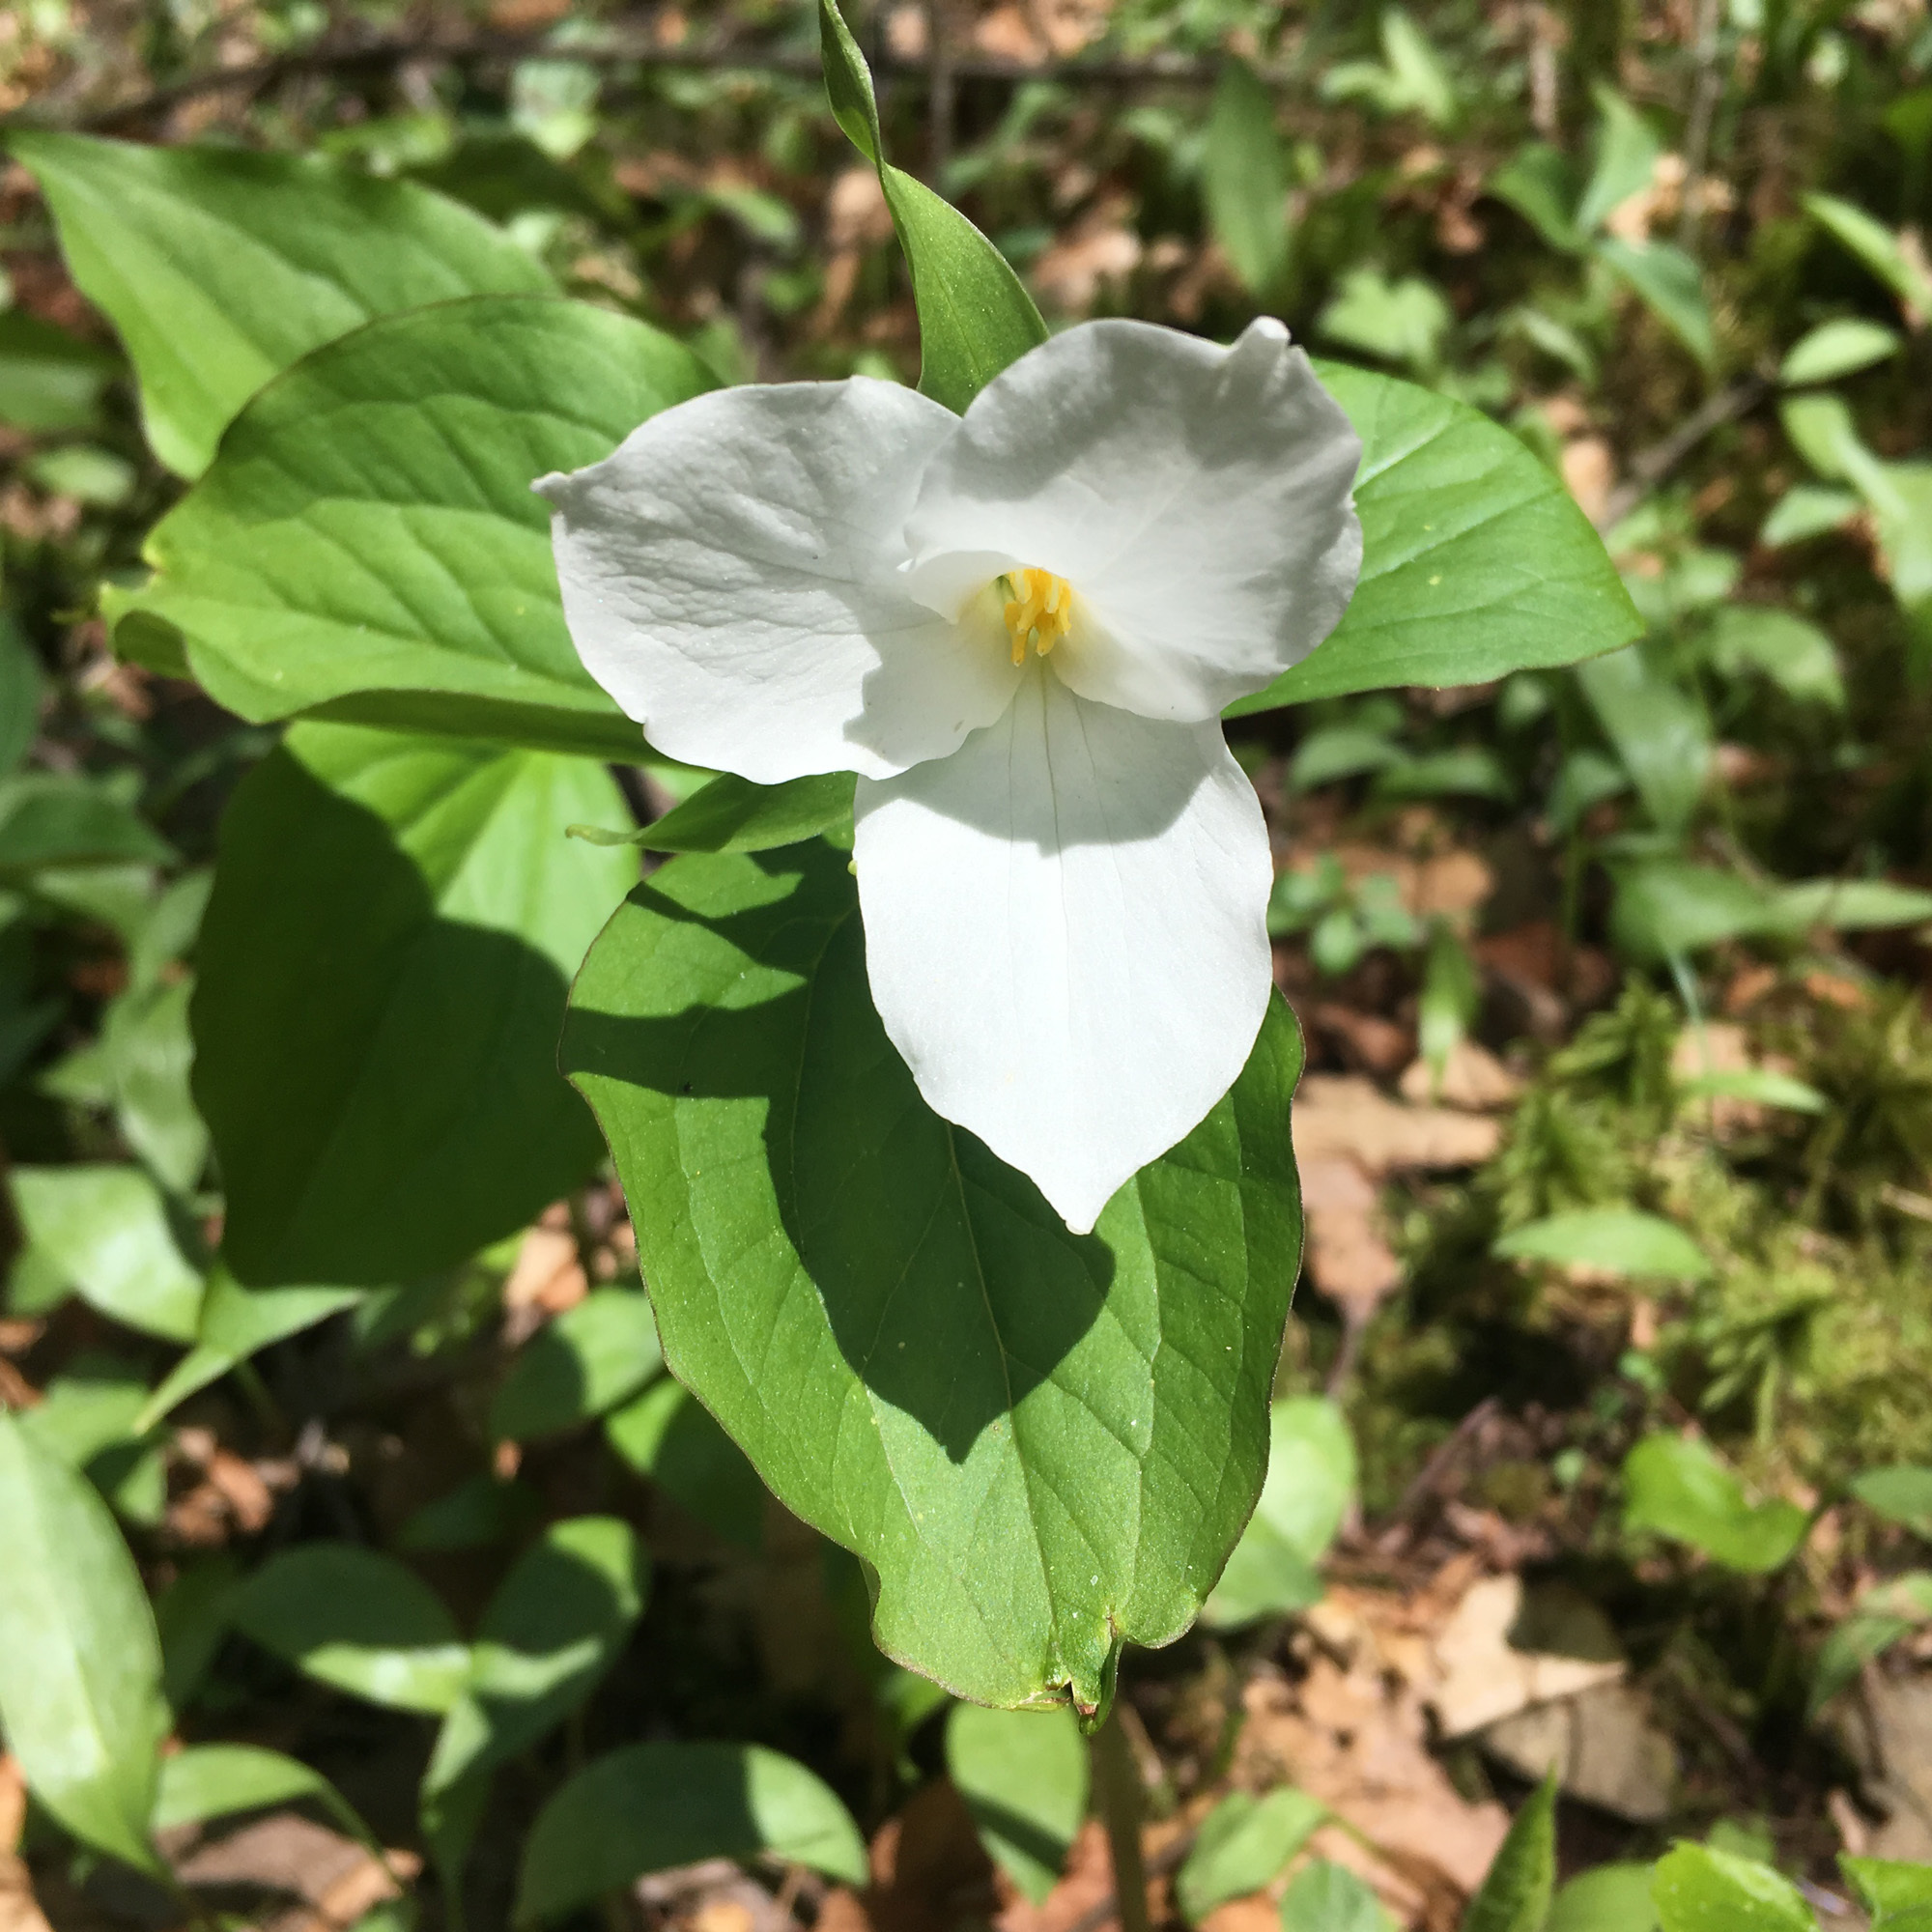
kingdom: Plantae
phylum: Tracheophyta
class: Liliopsida
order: Liliales
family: Melanthiaceae
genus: Trillium
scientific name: Trillium grandiflorum
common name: Great white trillium
